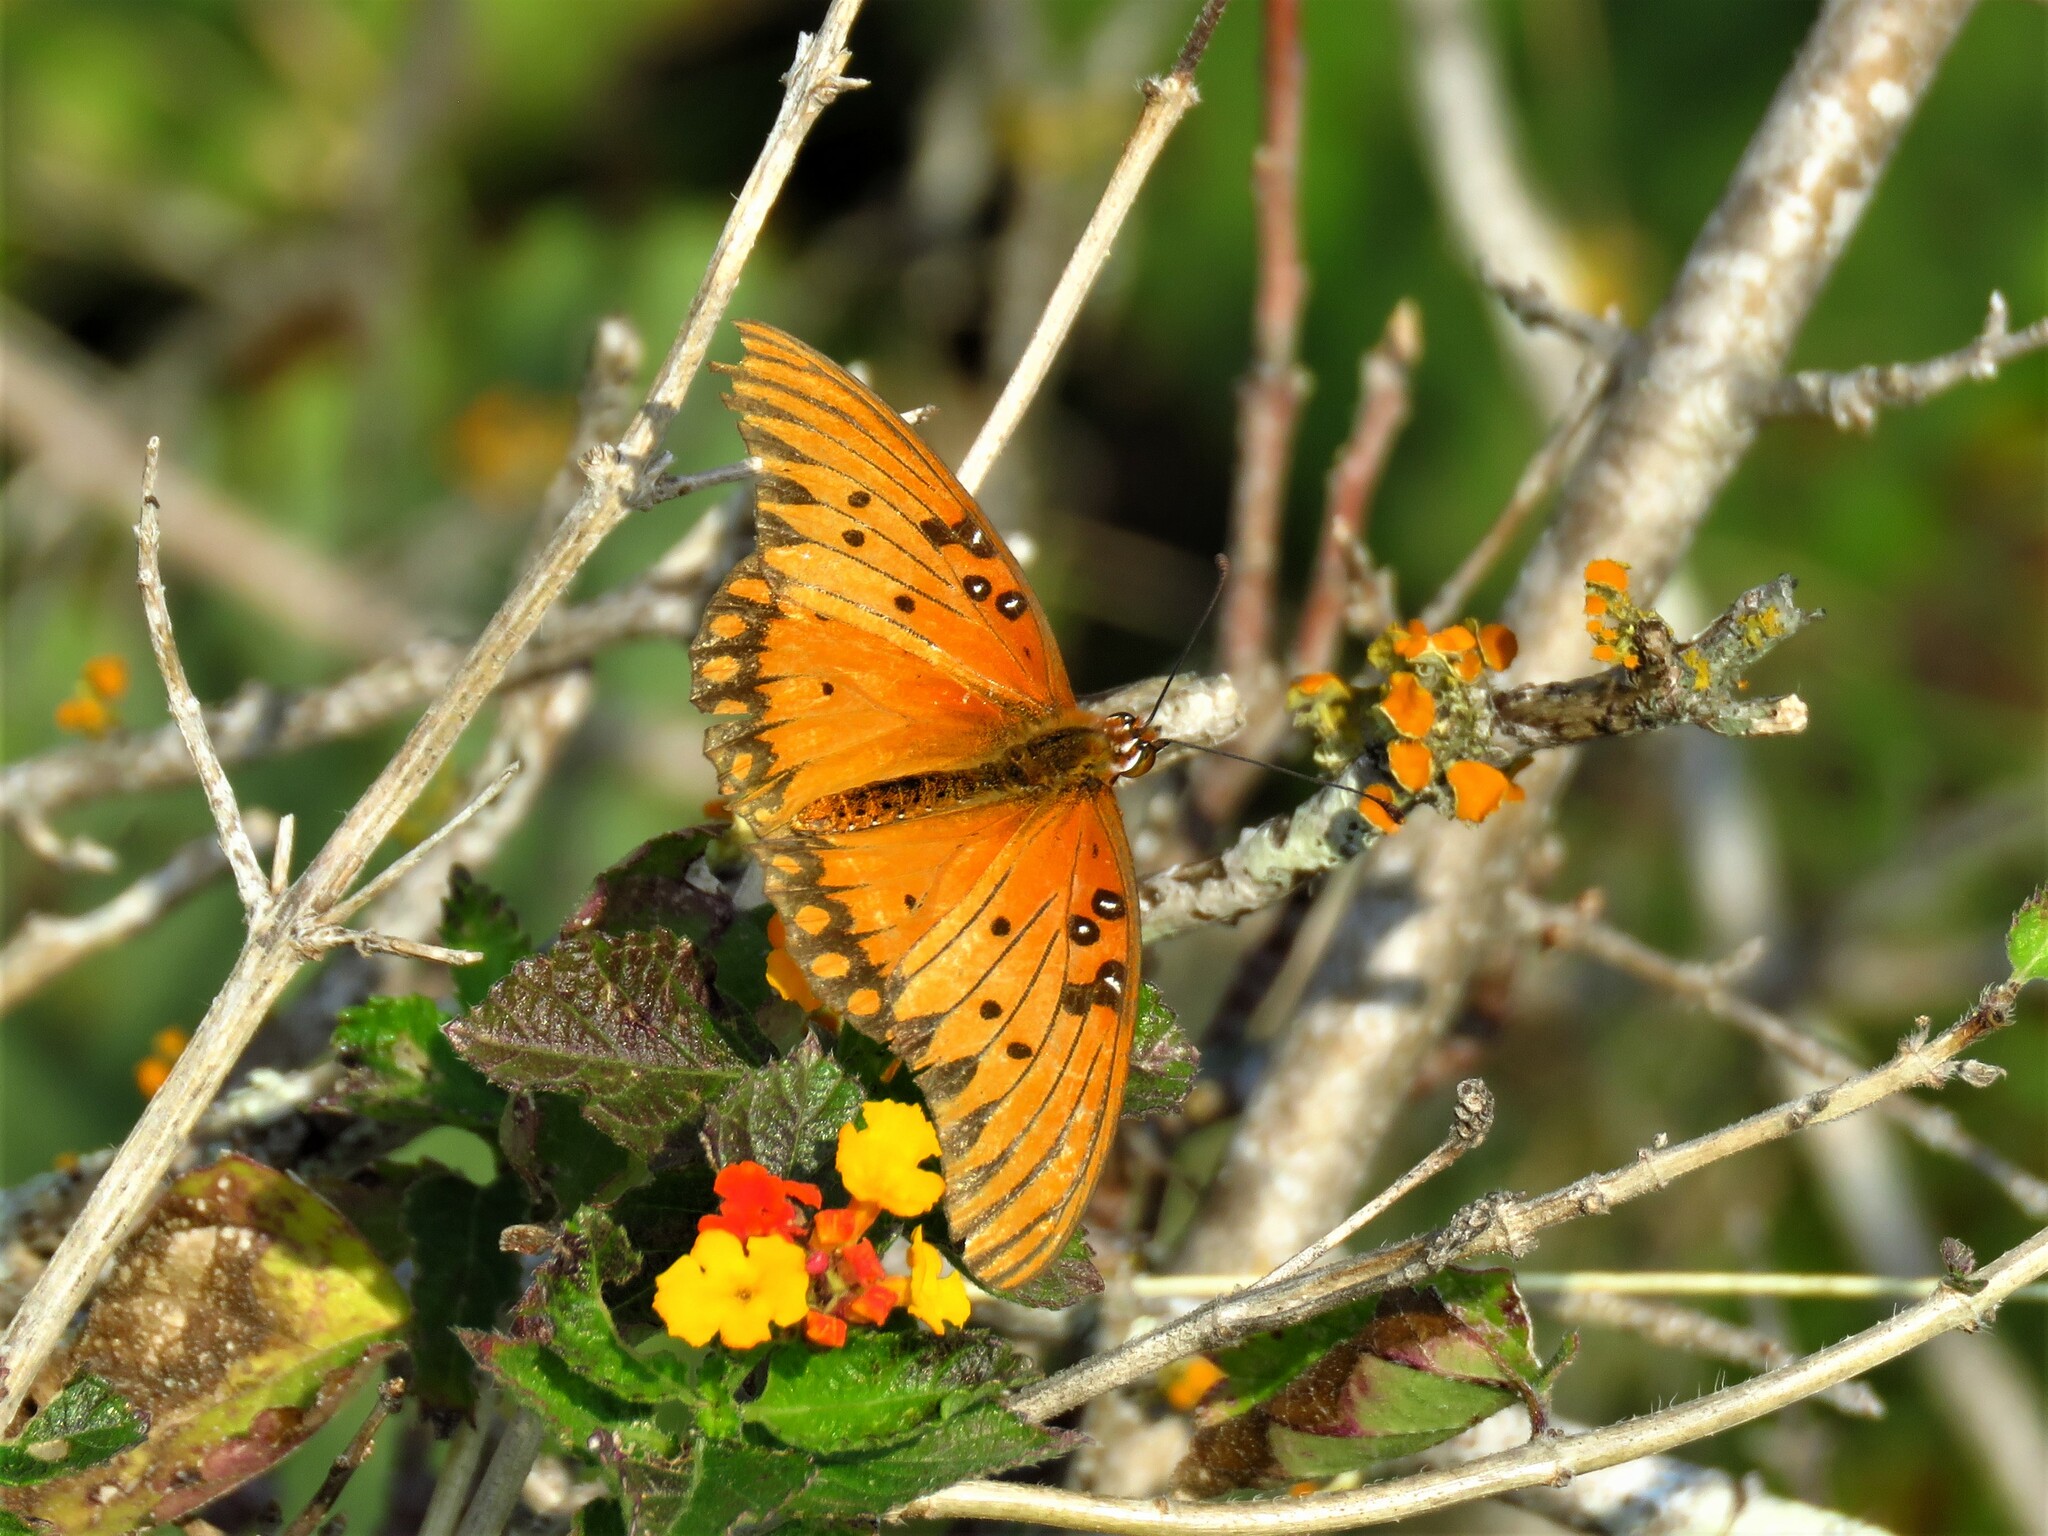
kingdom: Animalia
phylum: Arthropoda
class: Insecta
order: Lepidoptera
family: Nymphalidae
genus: Dione
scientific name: Dione vanillae
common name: Gulf fritillary
